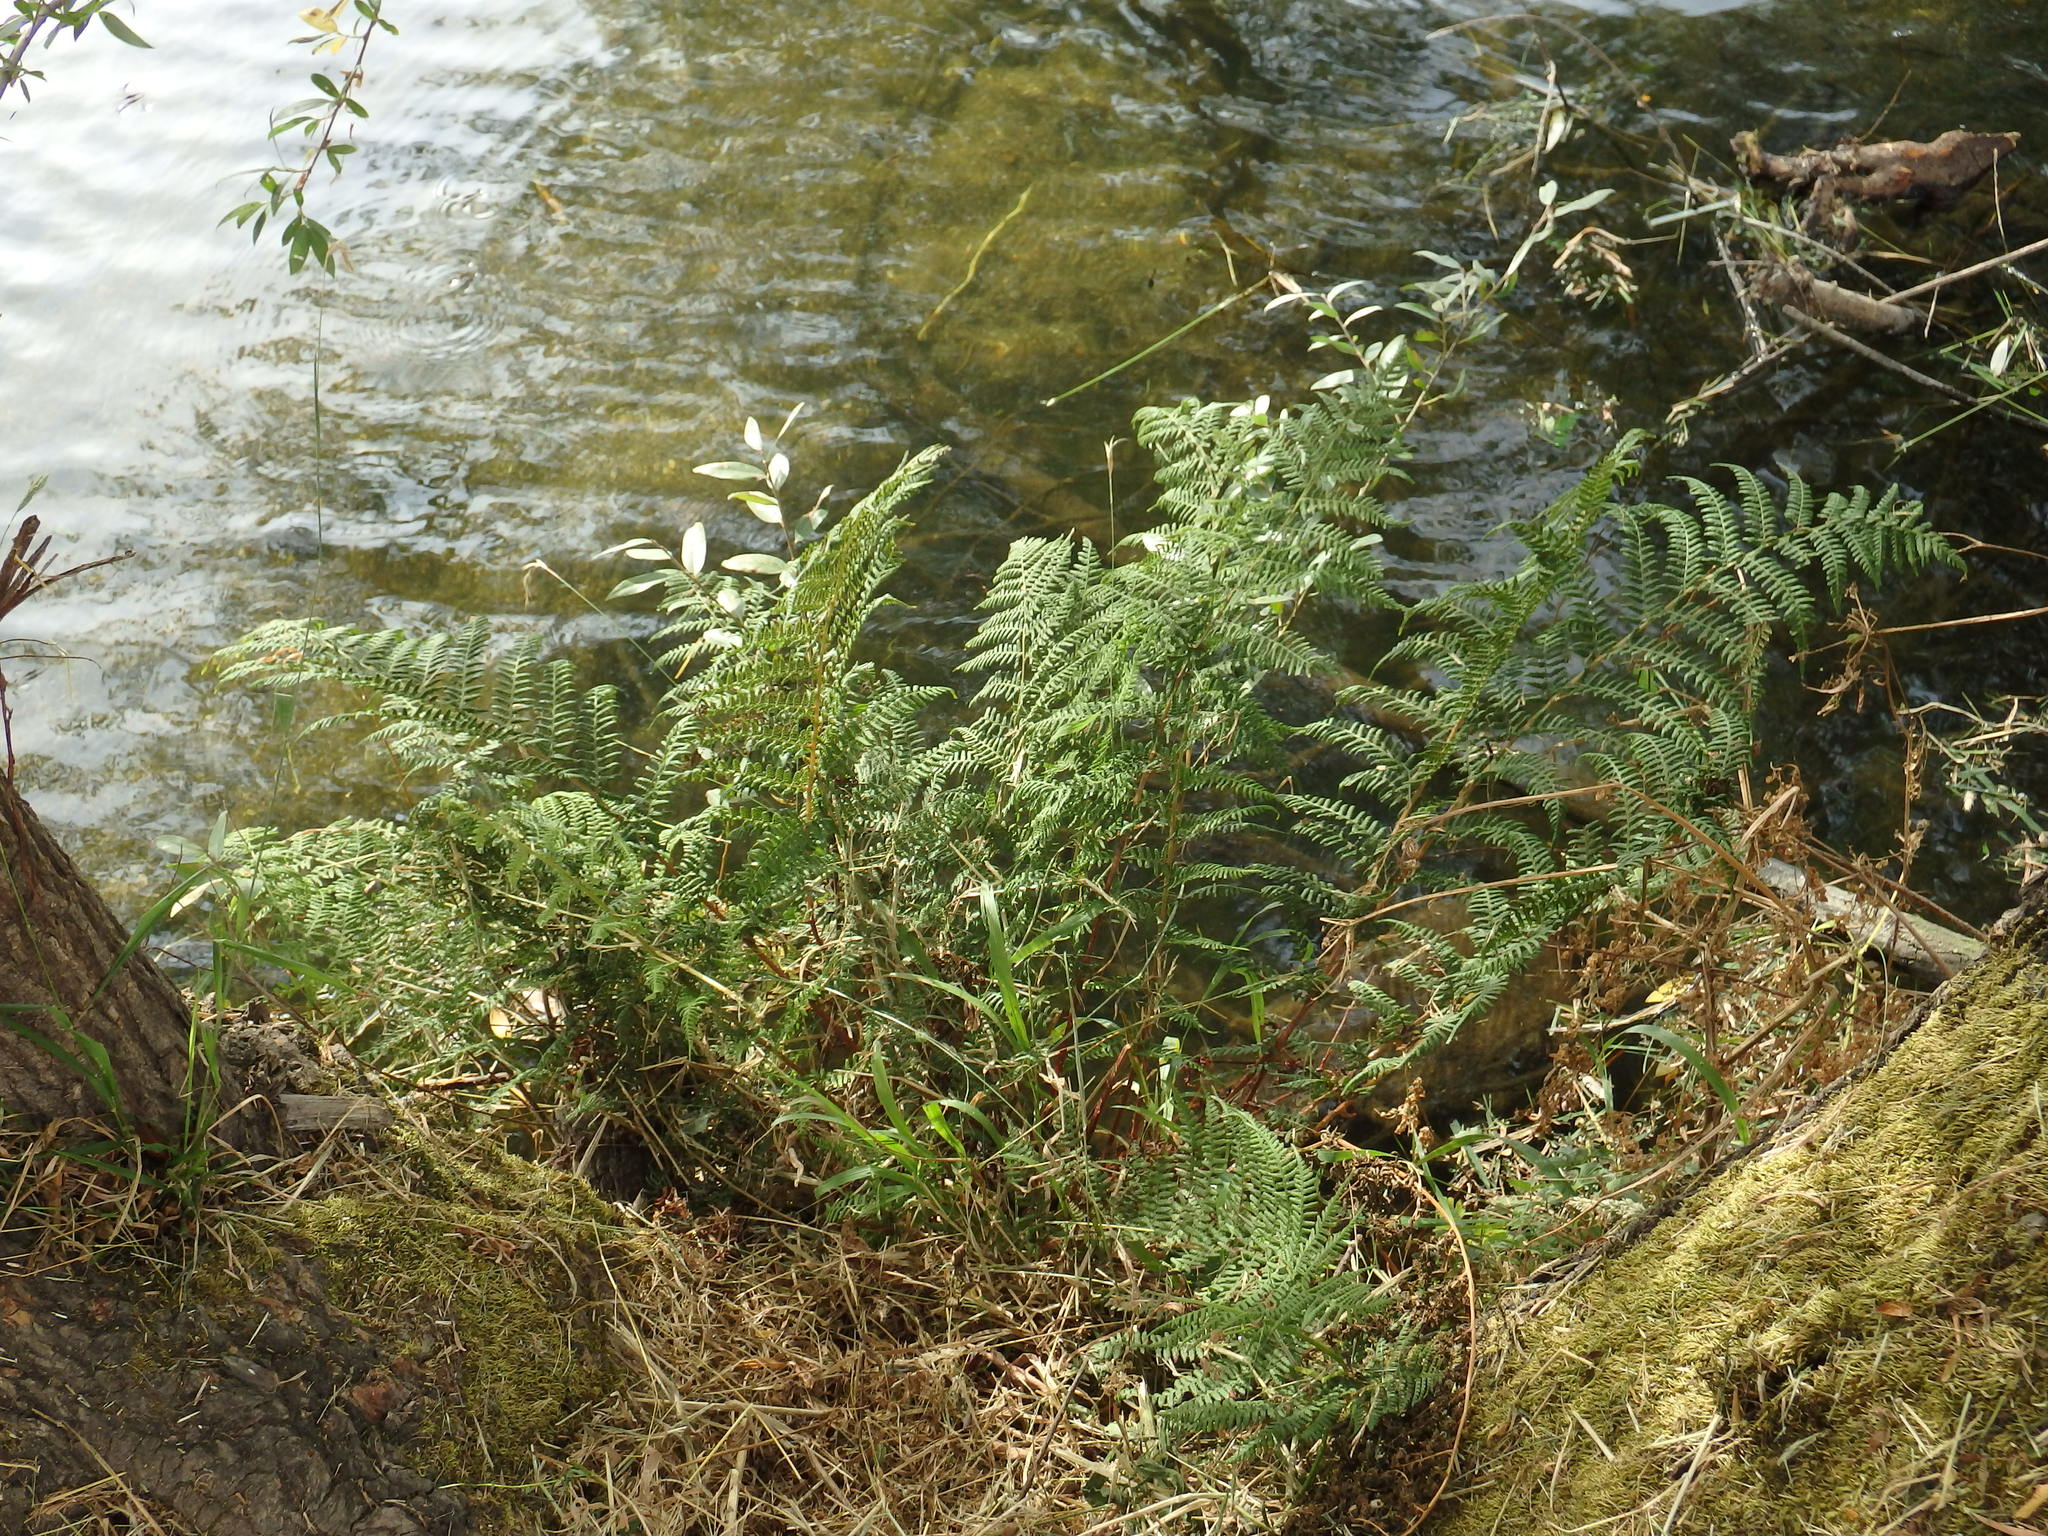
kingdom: Plantae
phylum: Tracheophyta
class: Polypodiopsida
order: Polypodiales
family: Athyriaceae
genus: Athyrium
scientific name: Athyrium filix-femina
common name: Lady fern
